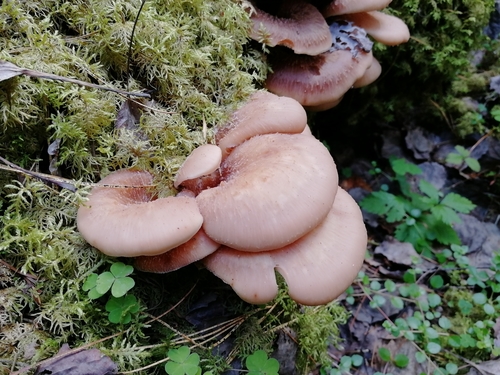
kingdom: Fungi
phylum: Basidiomycota
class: Agaricomycetes
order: Russulales
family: Auriscalpiaceae
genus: Lentinellus
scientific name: Lentinellus
